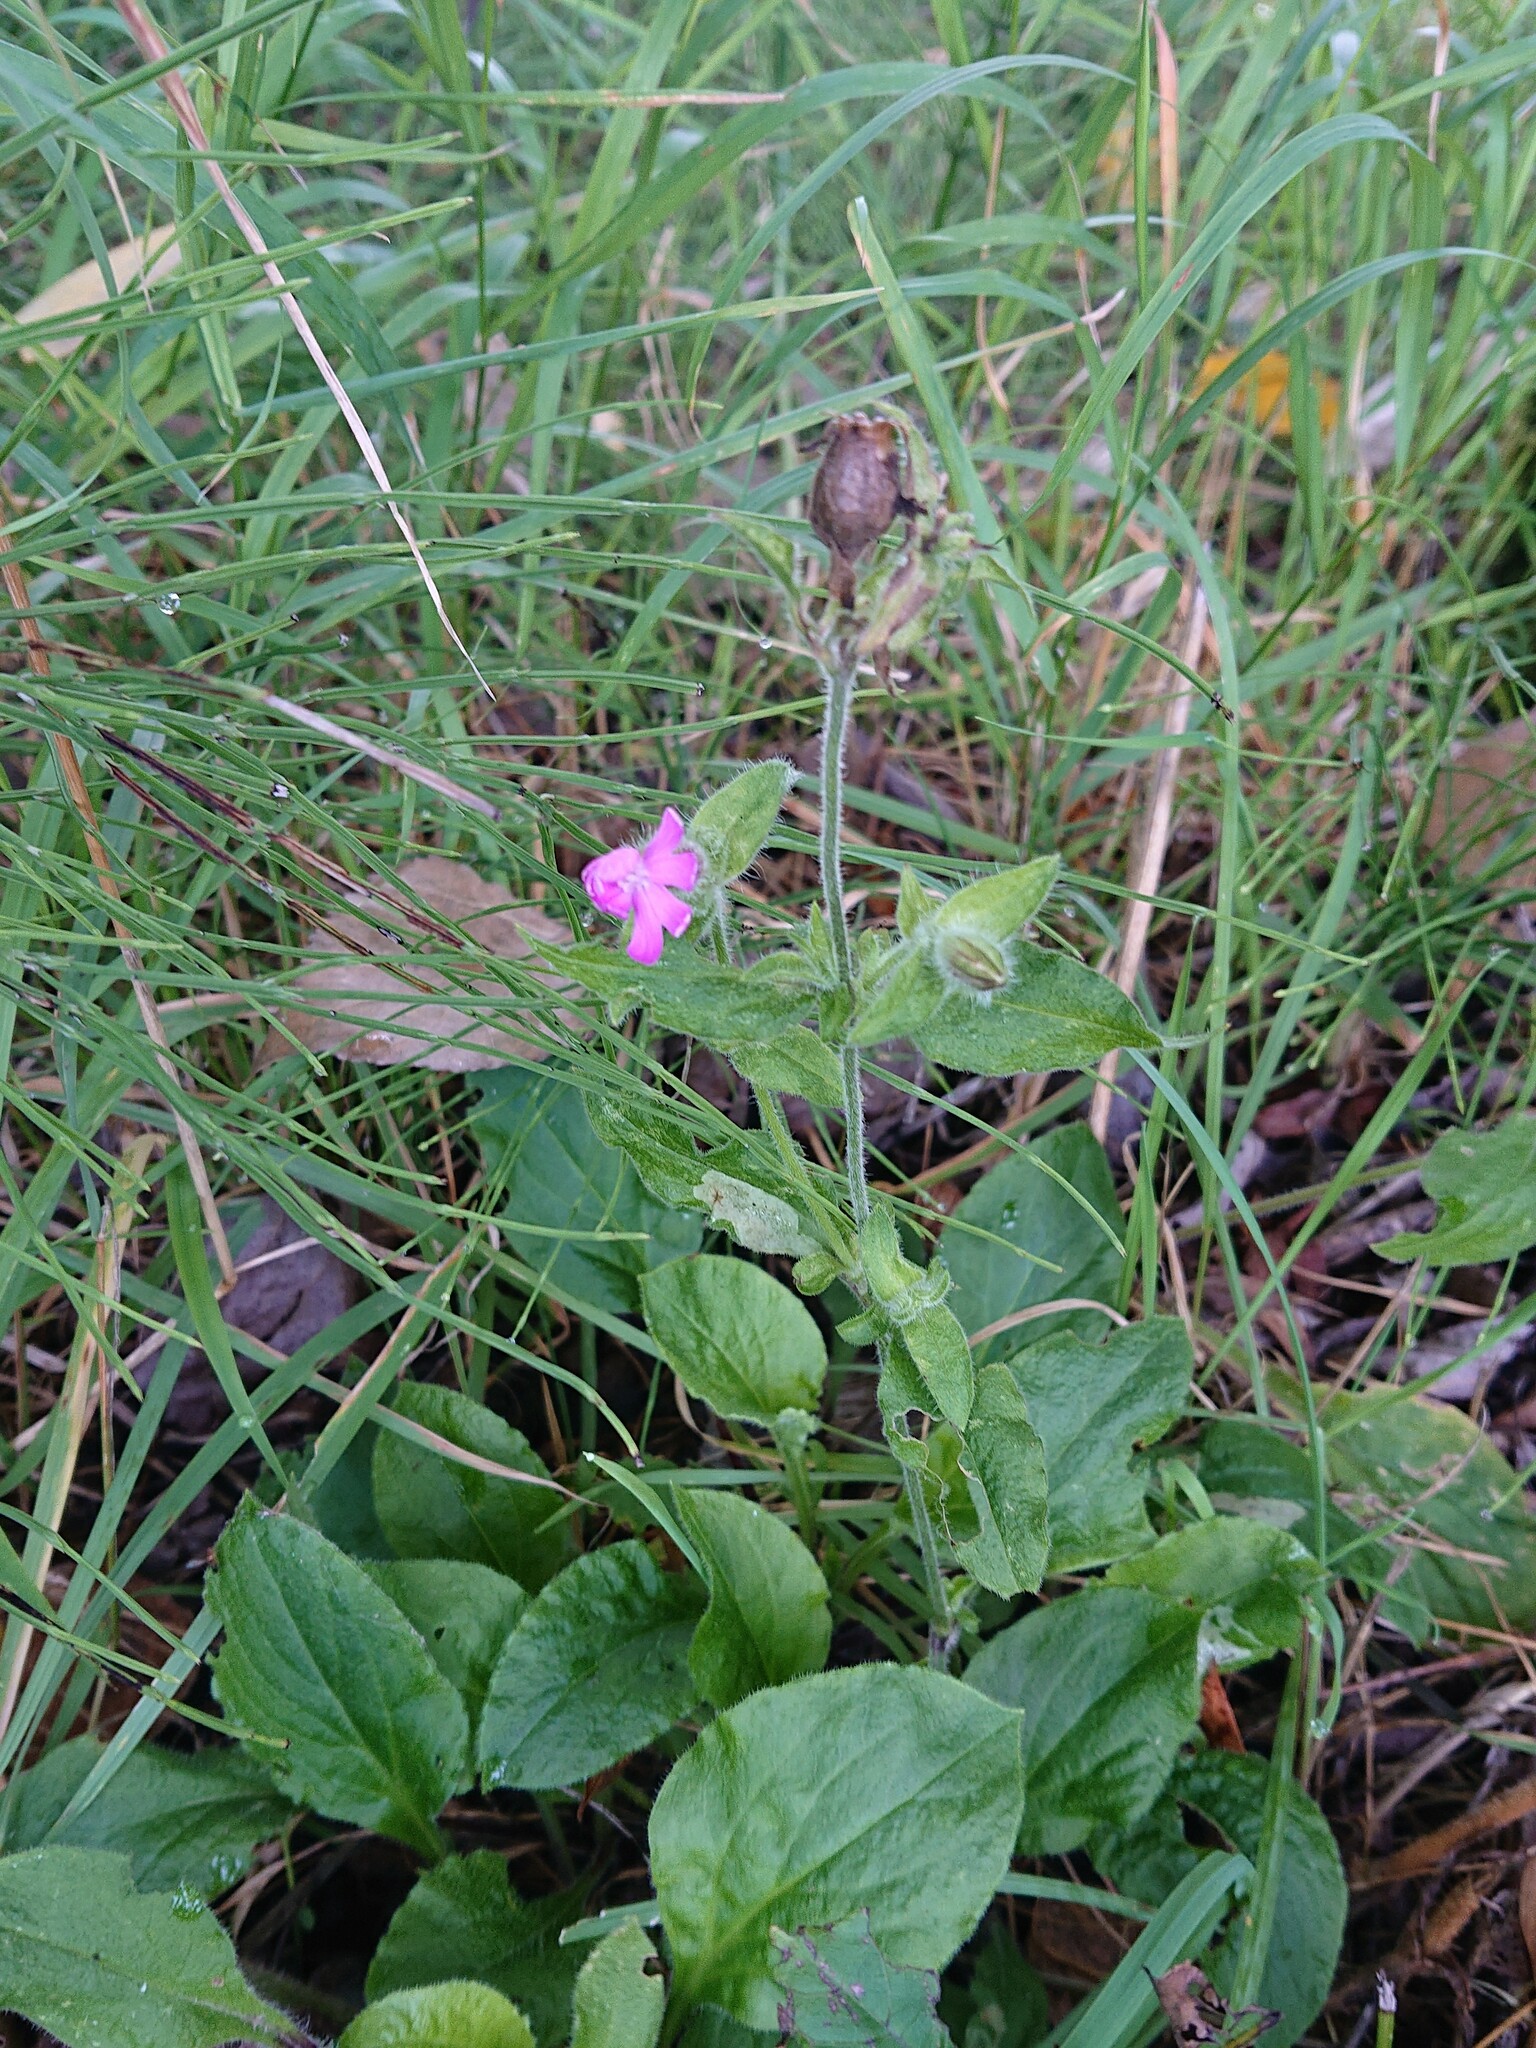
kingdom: Plantae
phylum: Tracheophyta
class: Magnoliopsida
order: Caryophyllales
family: Caryophyllaceae
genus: Silene
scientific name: Silene dioica
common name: Red campion
